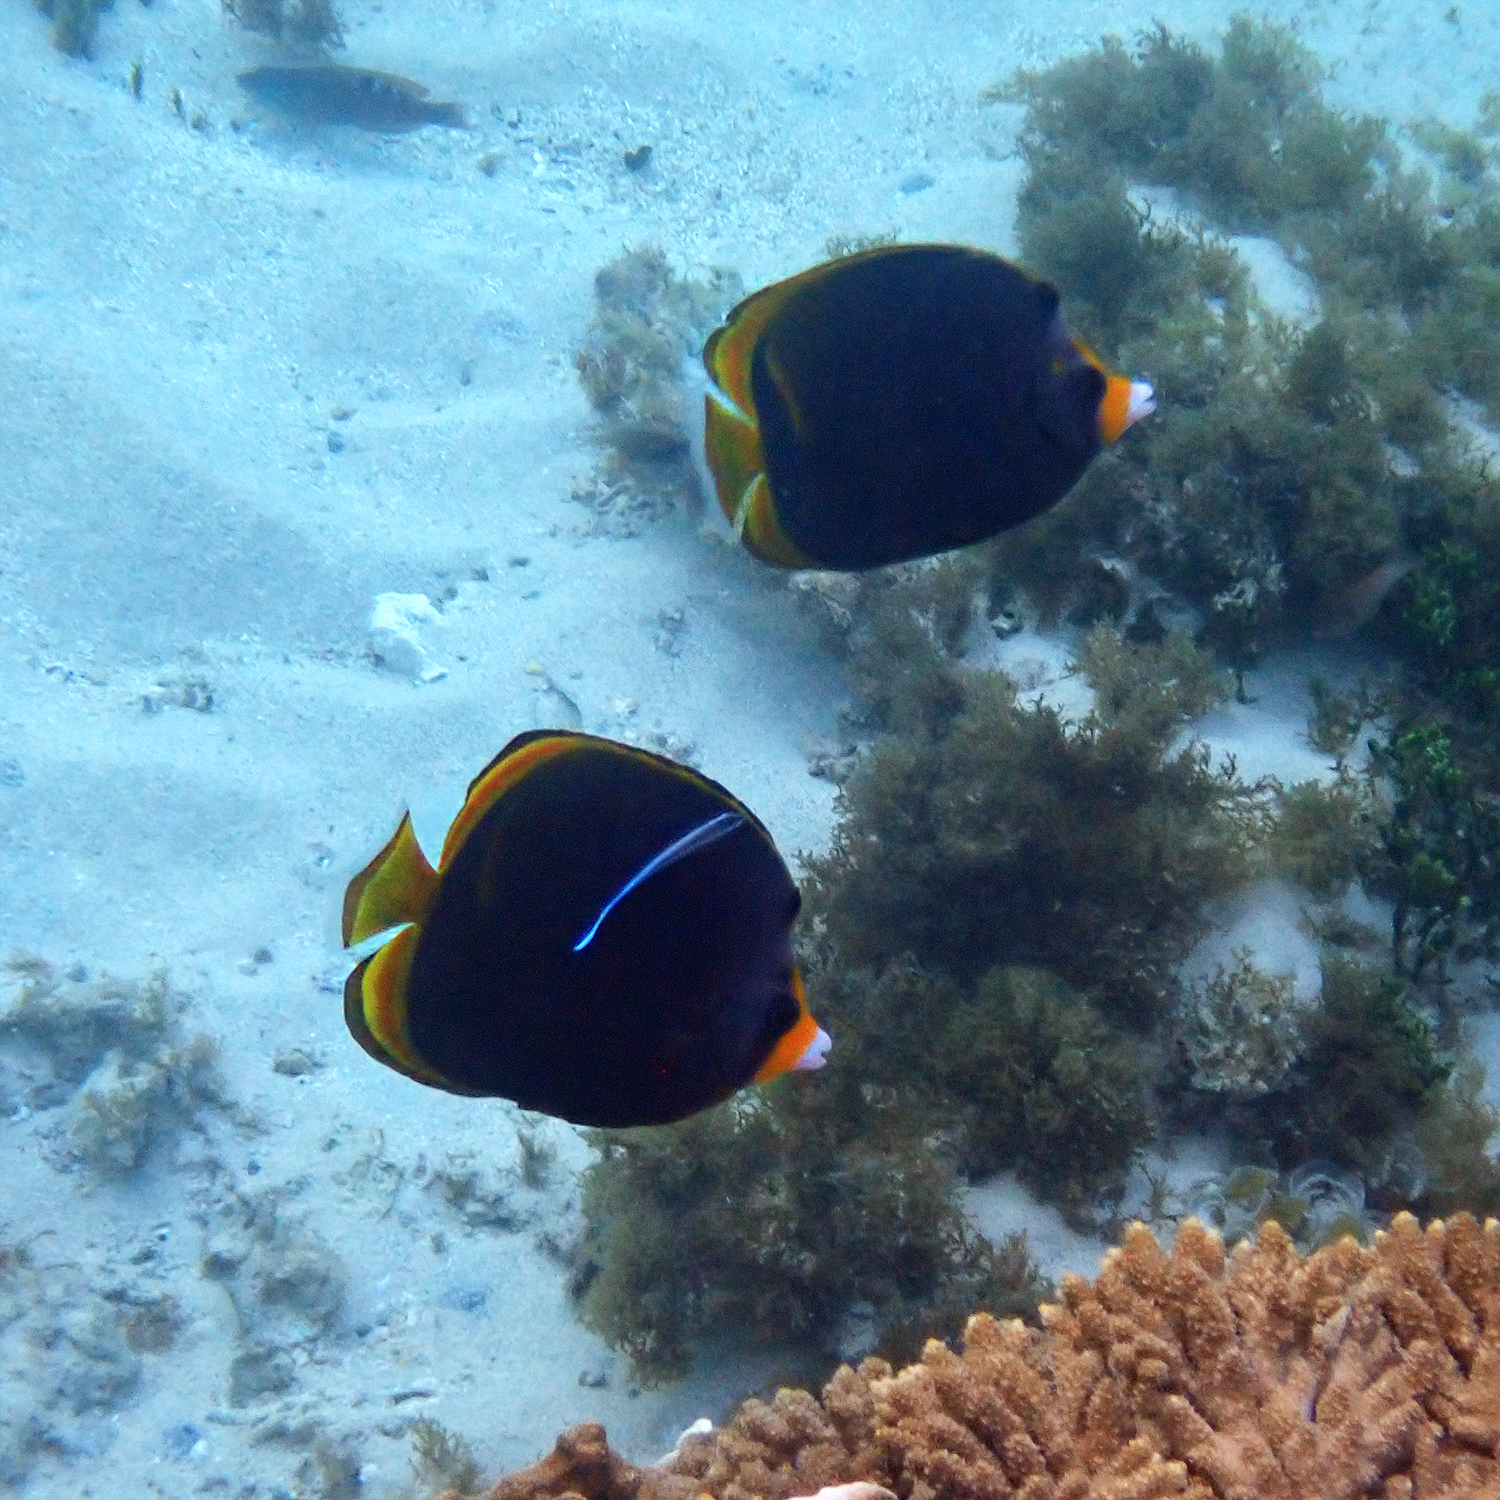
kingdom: Animalia
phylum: Chordata
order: Perciformes
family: Labridae
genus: Labroides
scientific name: Labroides dimidiatus
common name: Blue diesel wrasse
